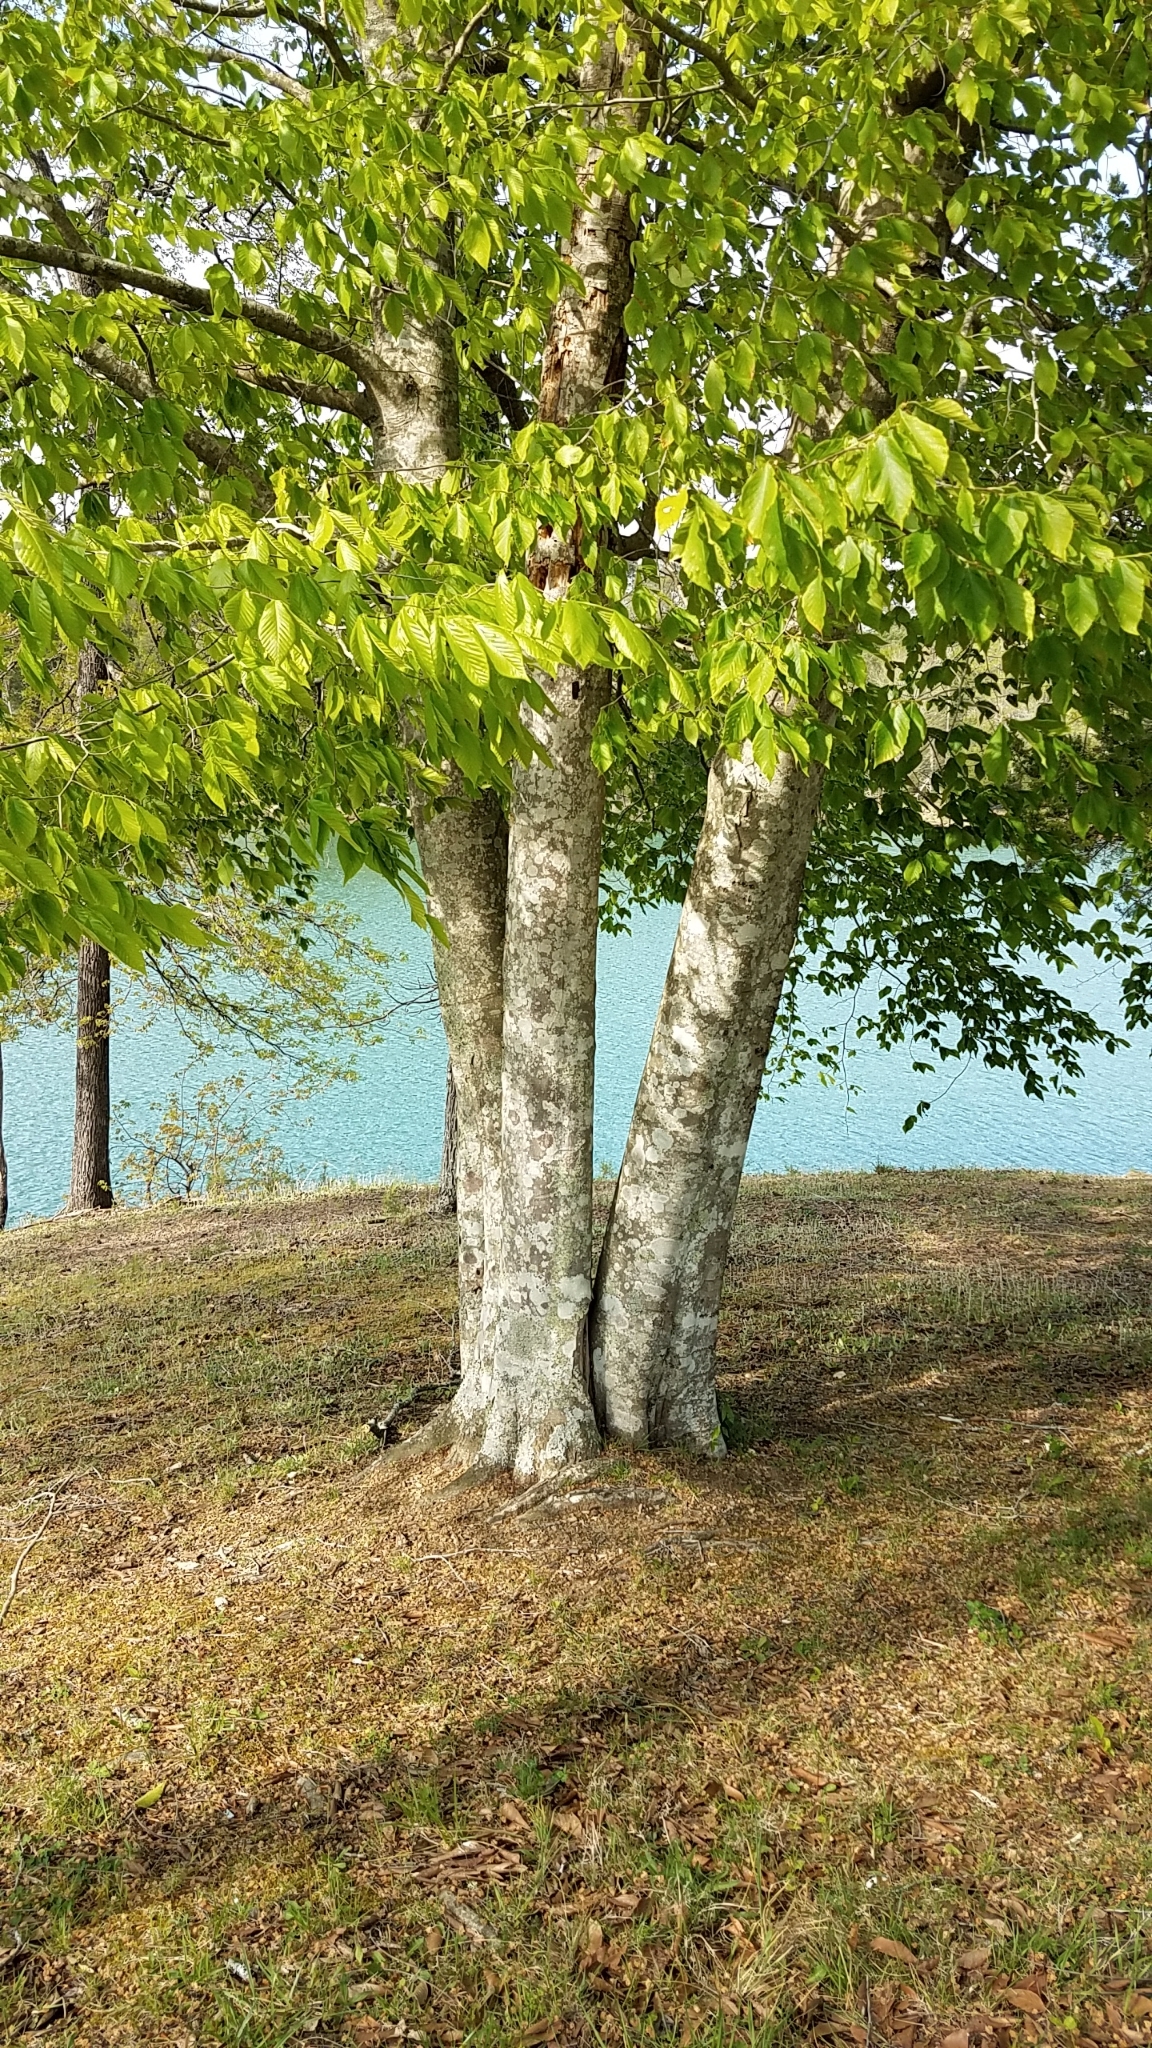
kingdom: Plantae
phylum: Tracheophyta
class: Magnoliopsida
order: Fagales
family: Fagaceae
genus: Fagus
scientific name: Fagus grandifolia
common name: American beech
